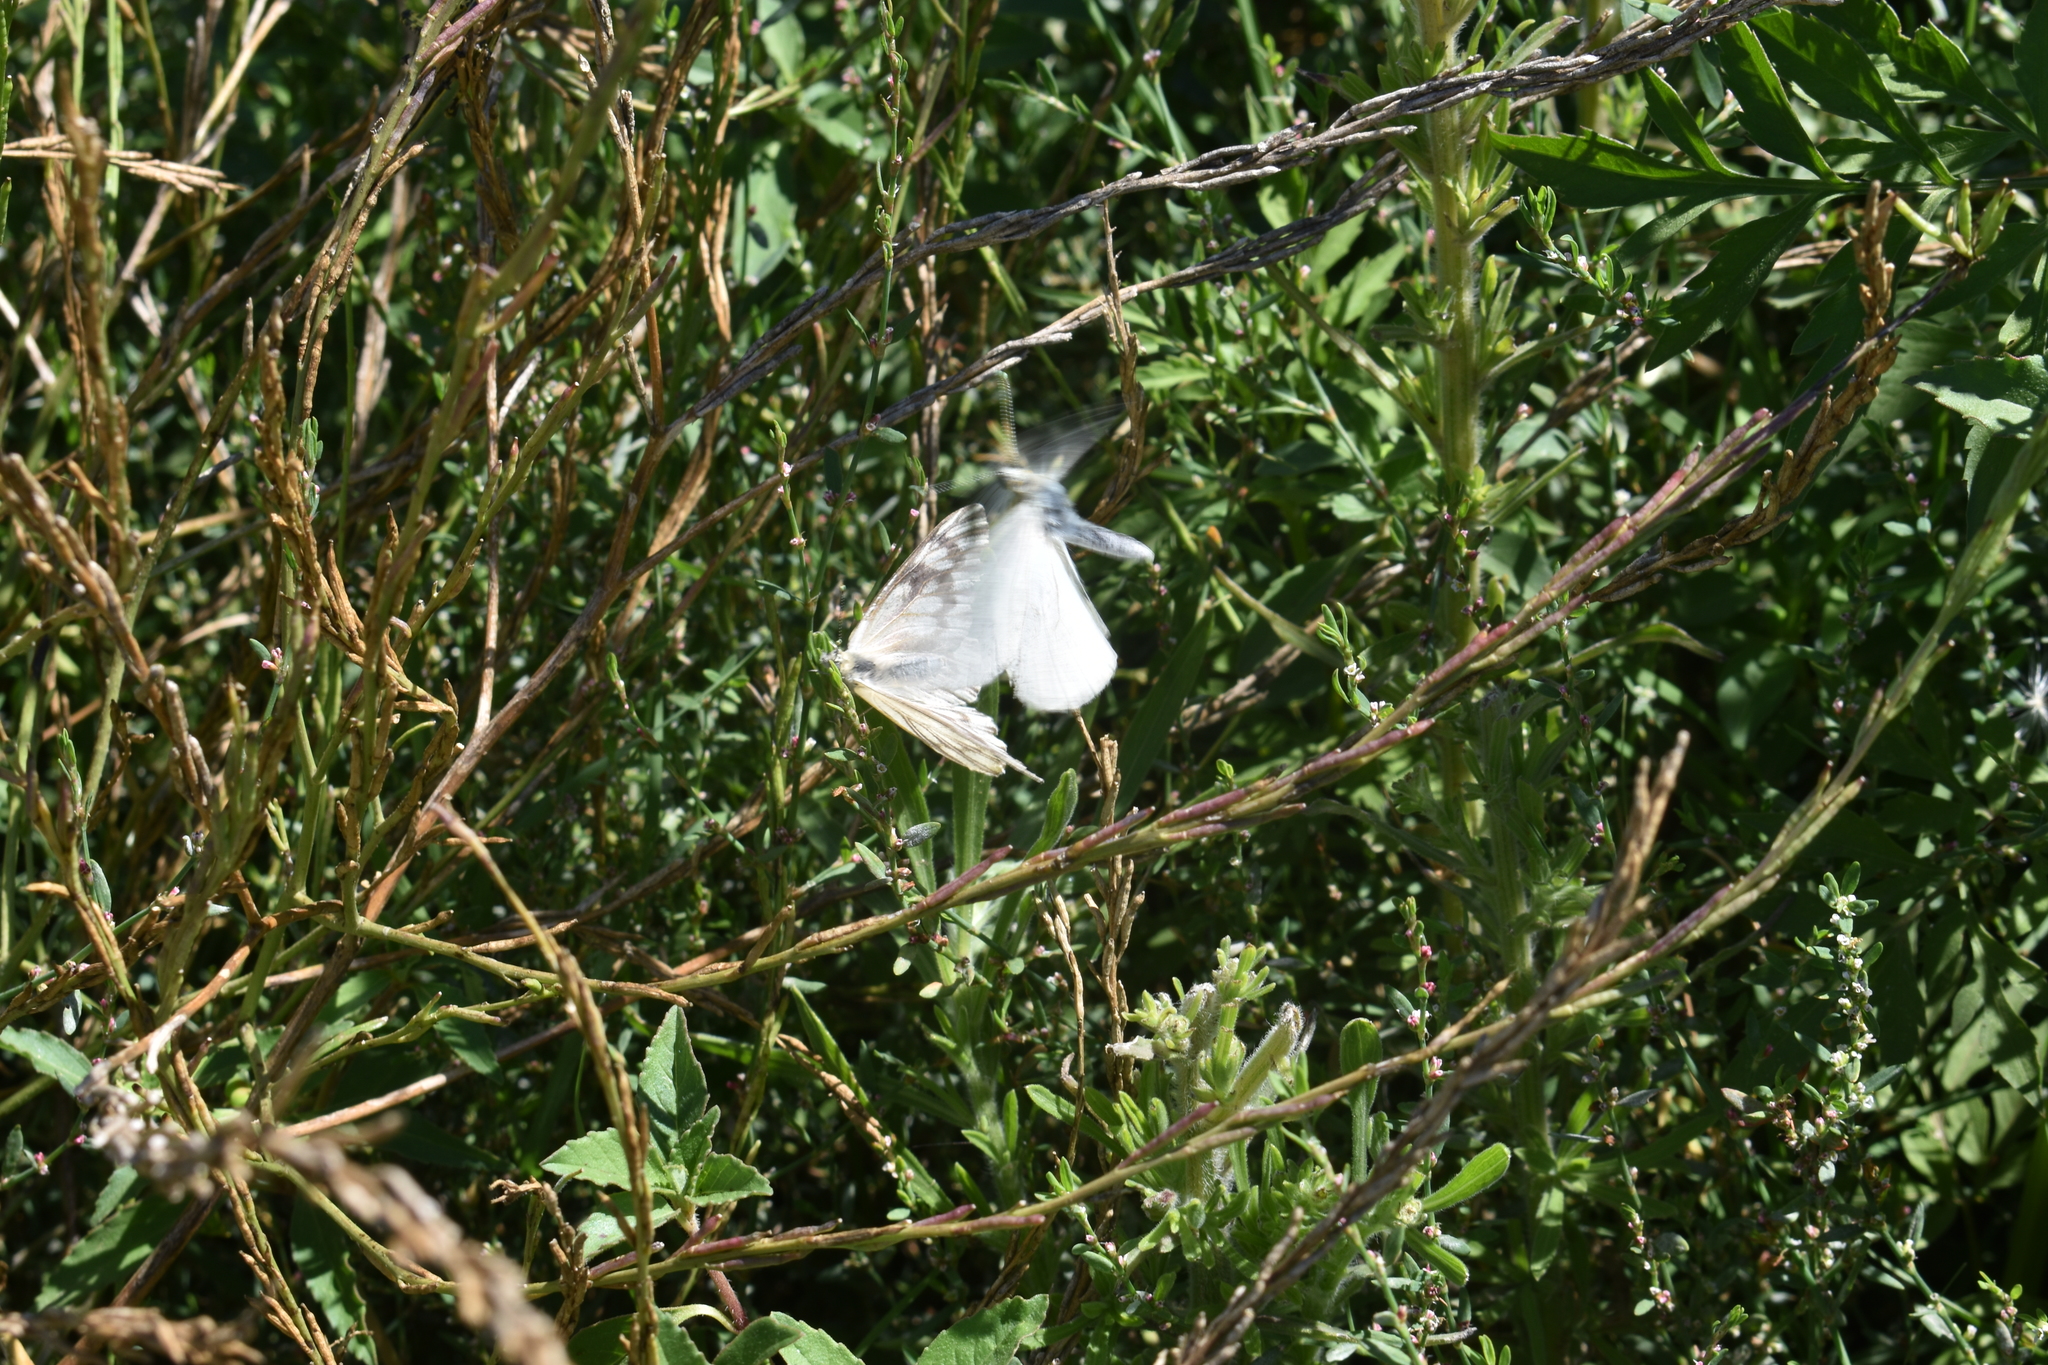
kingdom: Animalia
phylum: Arthropoda
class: Insecta
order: Lepidoptera
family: Pieridae
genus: Tatochila
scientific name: Tatochila mercedis
